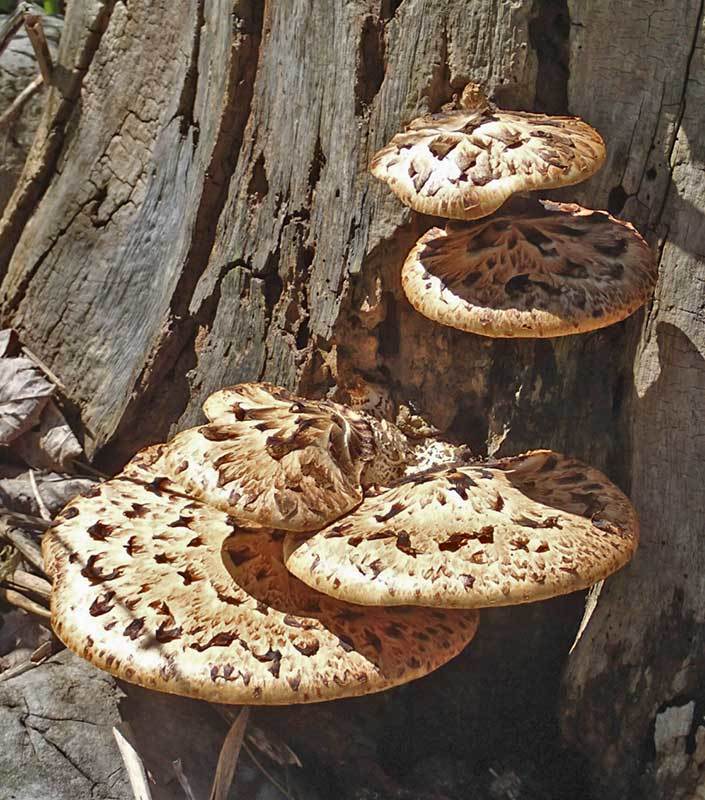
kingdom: Fungi
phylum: Basidiomycota
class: Agaricomycetes
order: Polyporales
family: Polyporaceae
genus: Cerioporus
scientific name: Cerioporus squamosus
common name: Dryad's saddle
